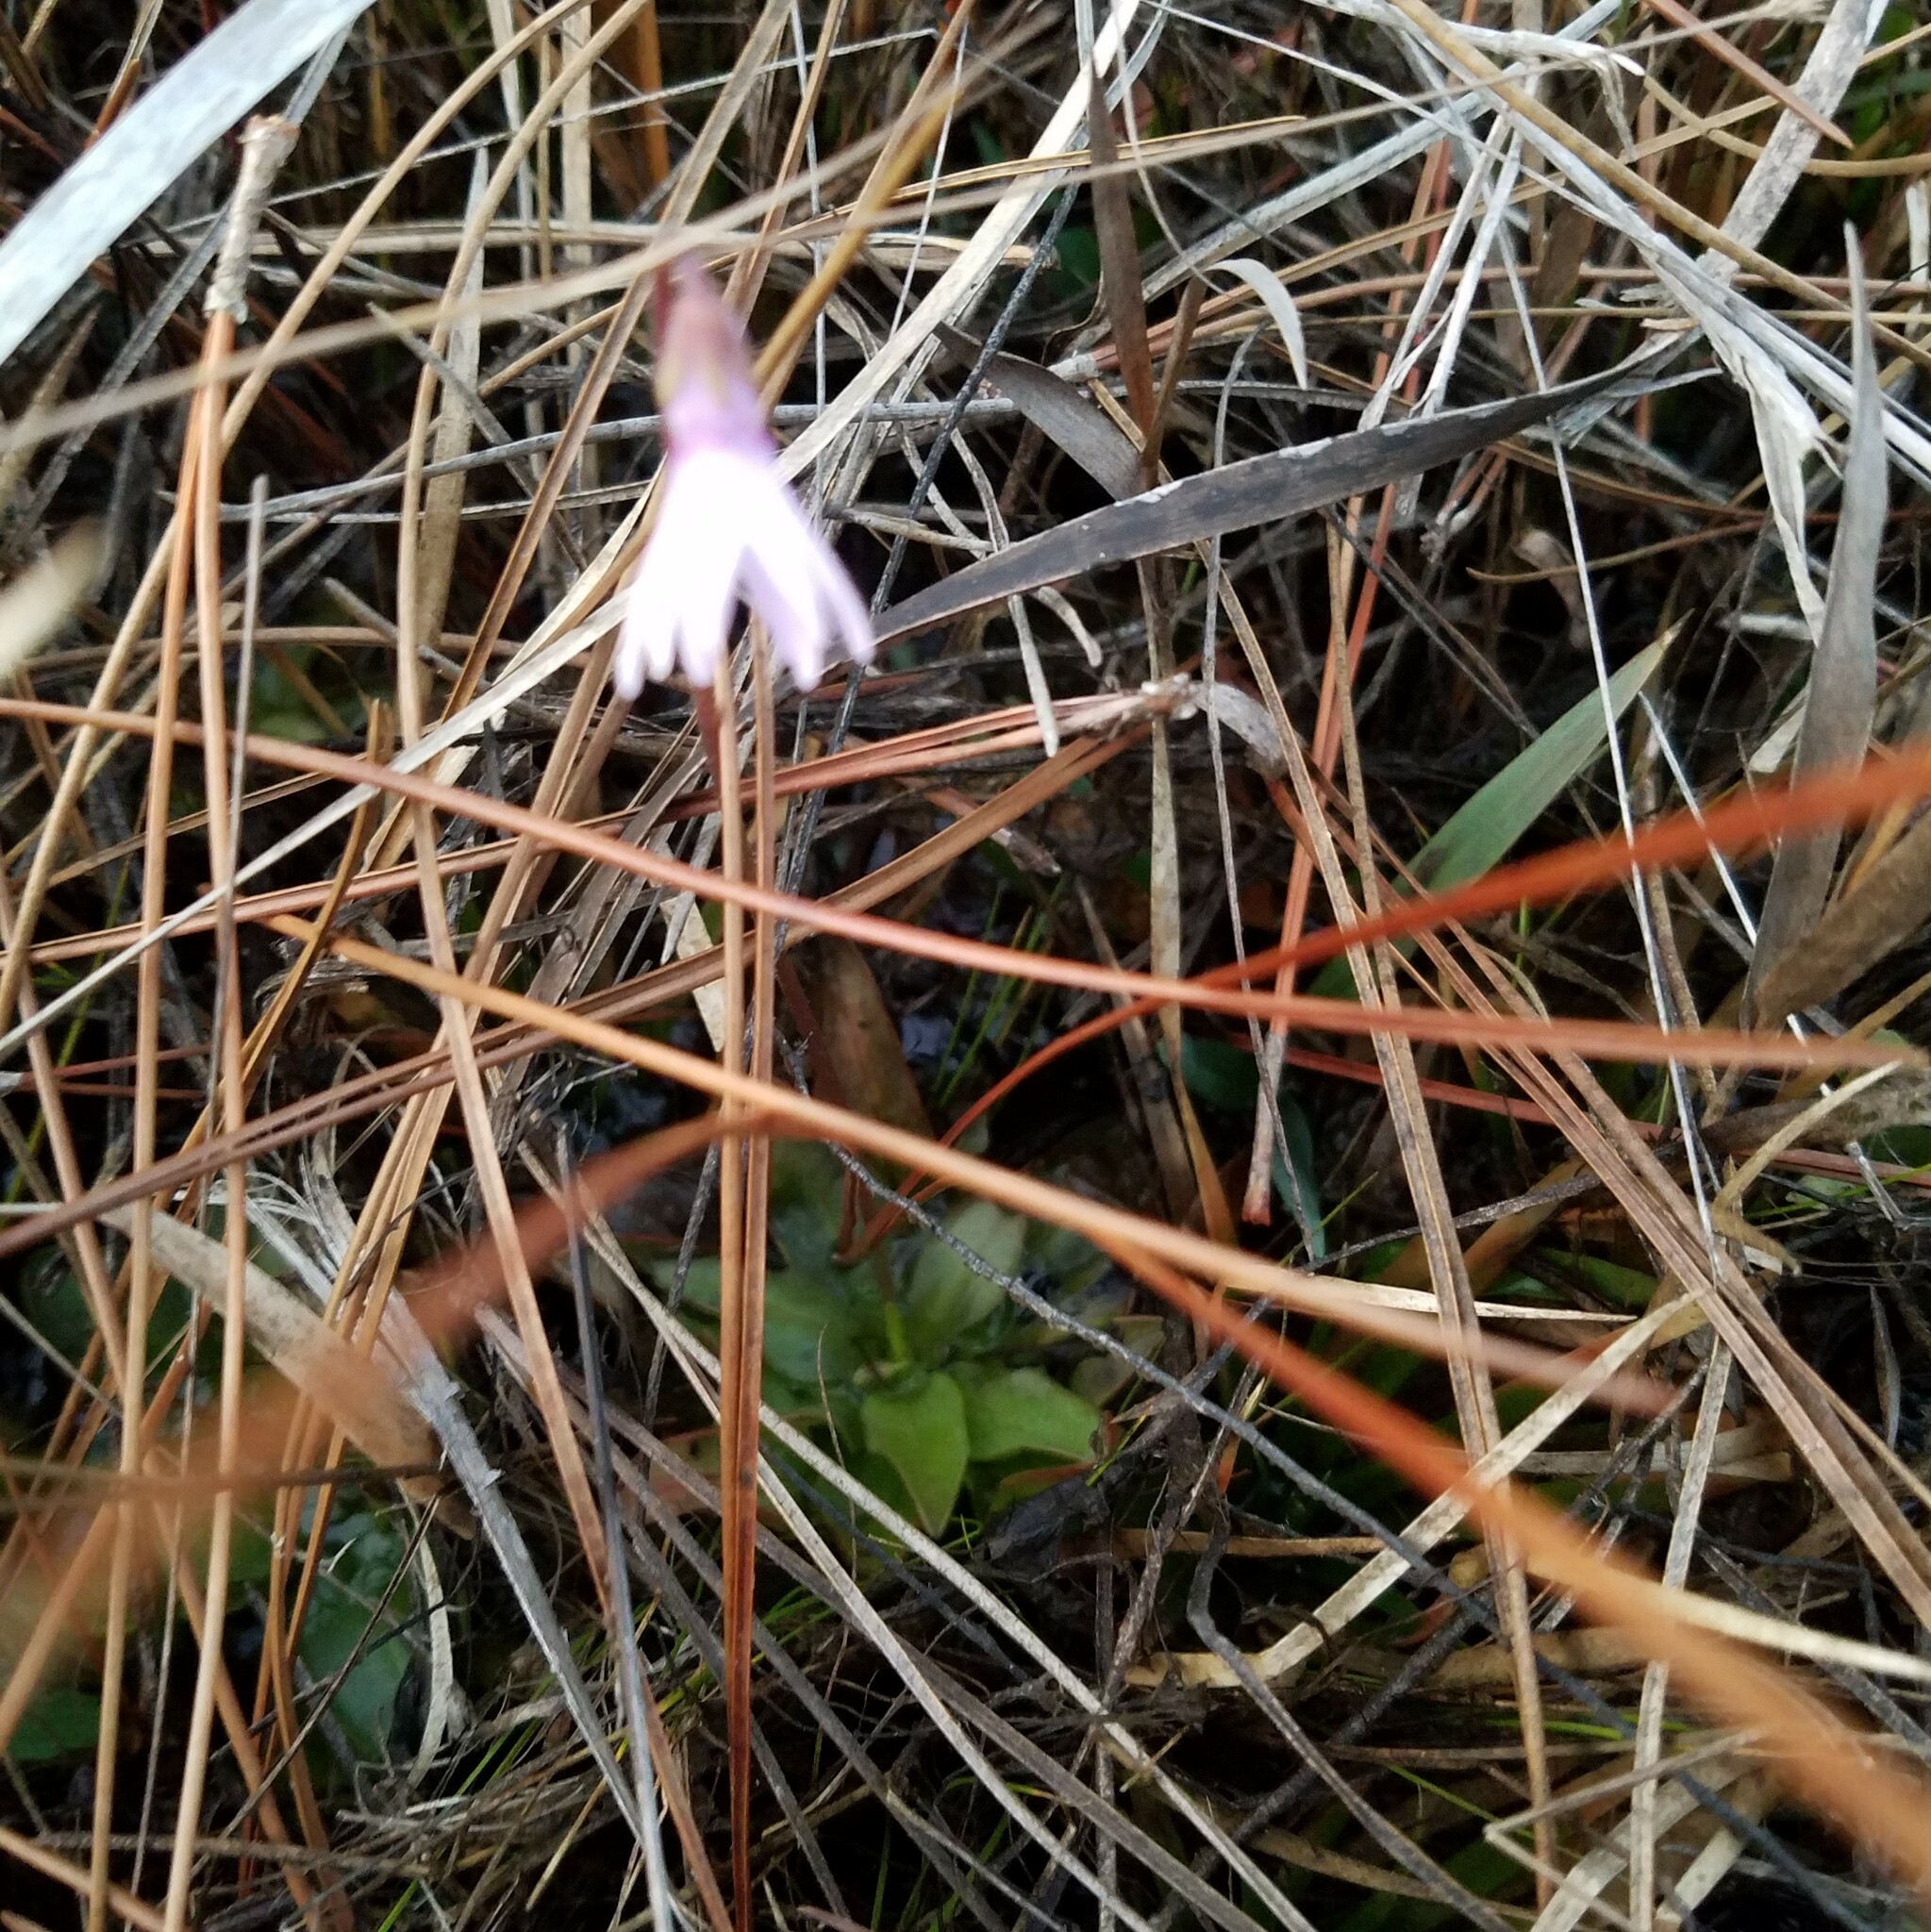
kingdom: Plantae
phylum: Tracheophyta
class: Magnoliopsida
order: Lamiales
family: Lentibulariaceae
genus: Pinguicula
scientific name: Pinguicula planifolia
